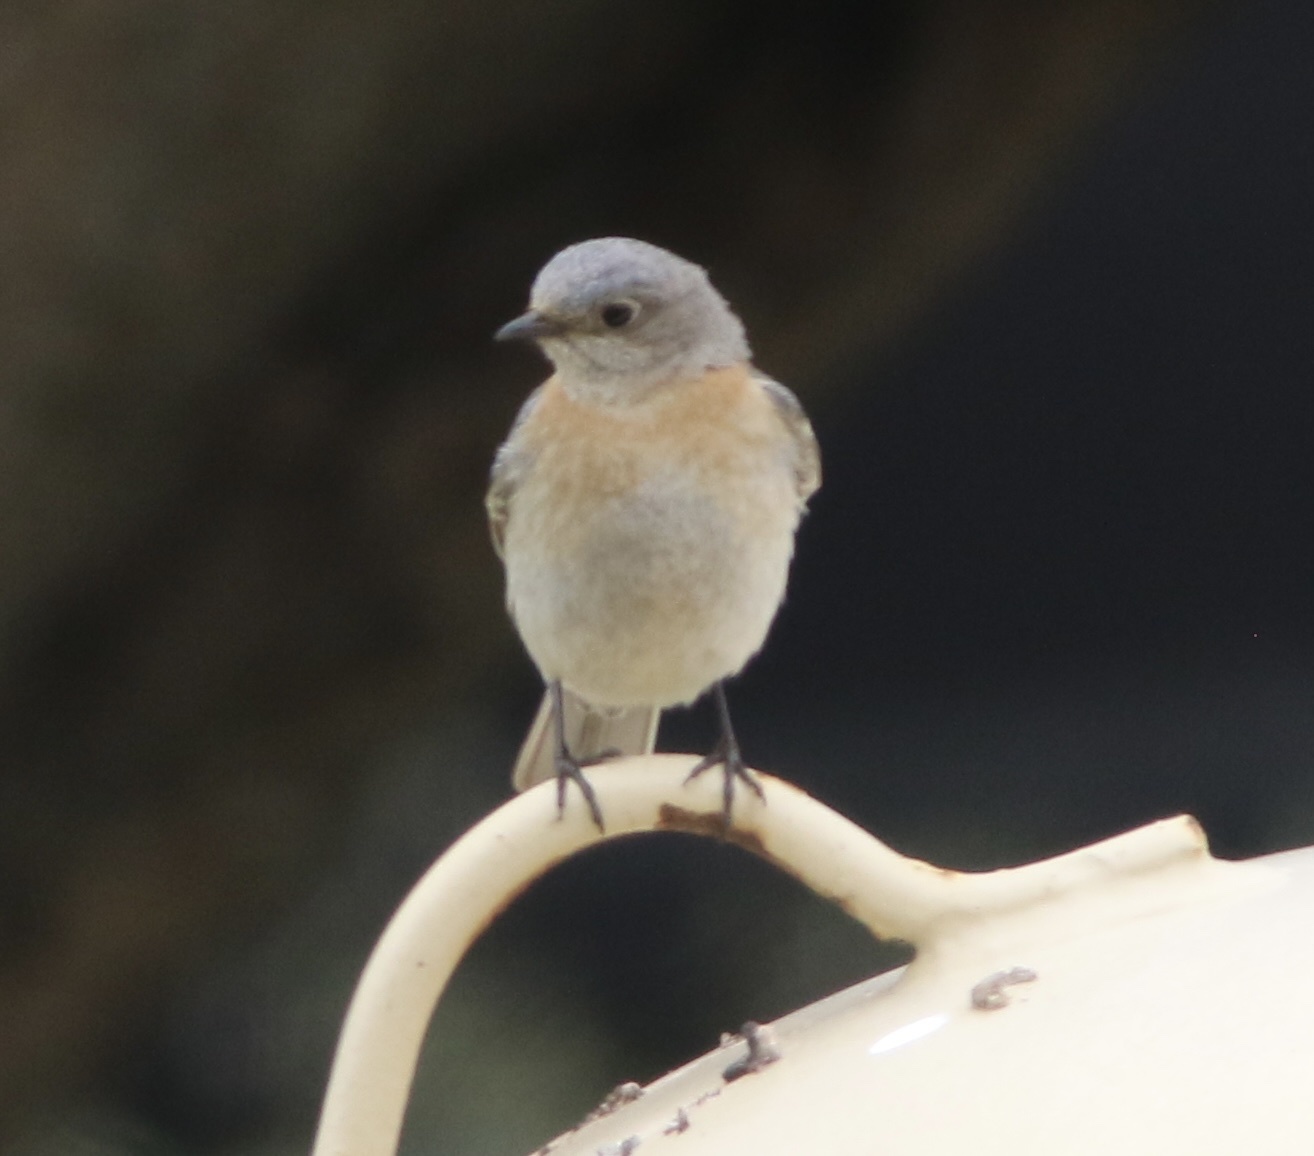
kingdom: Animalia
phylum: Chordata
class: Aves
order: Passeriformes
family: Turdidae
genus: Sialia
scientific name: Sialia mexicana
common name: Western bluebird
